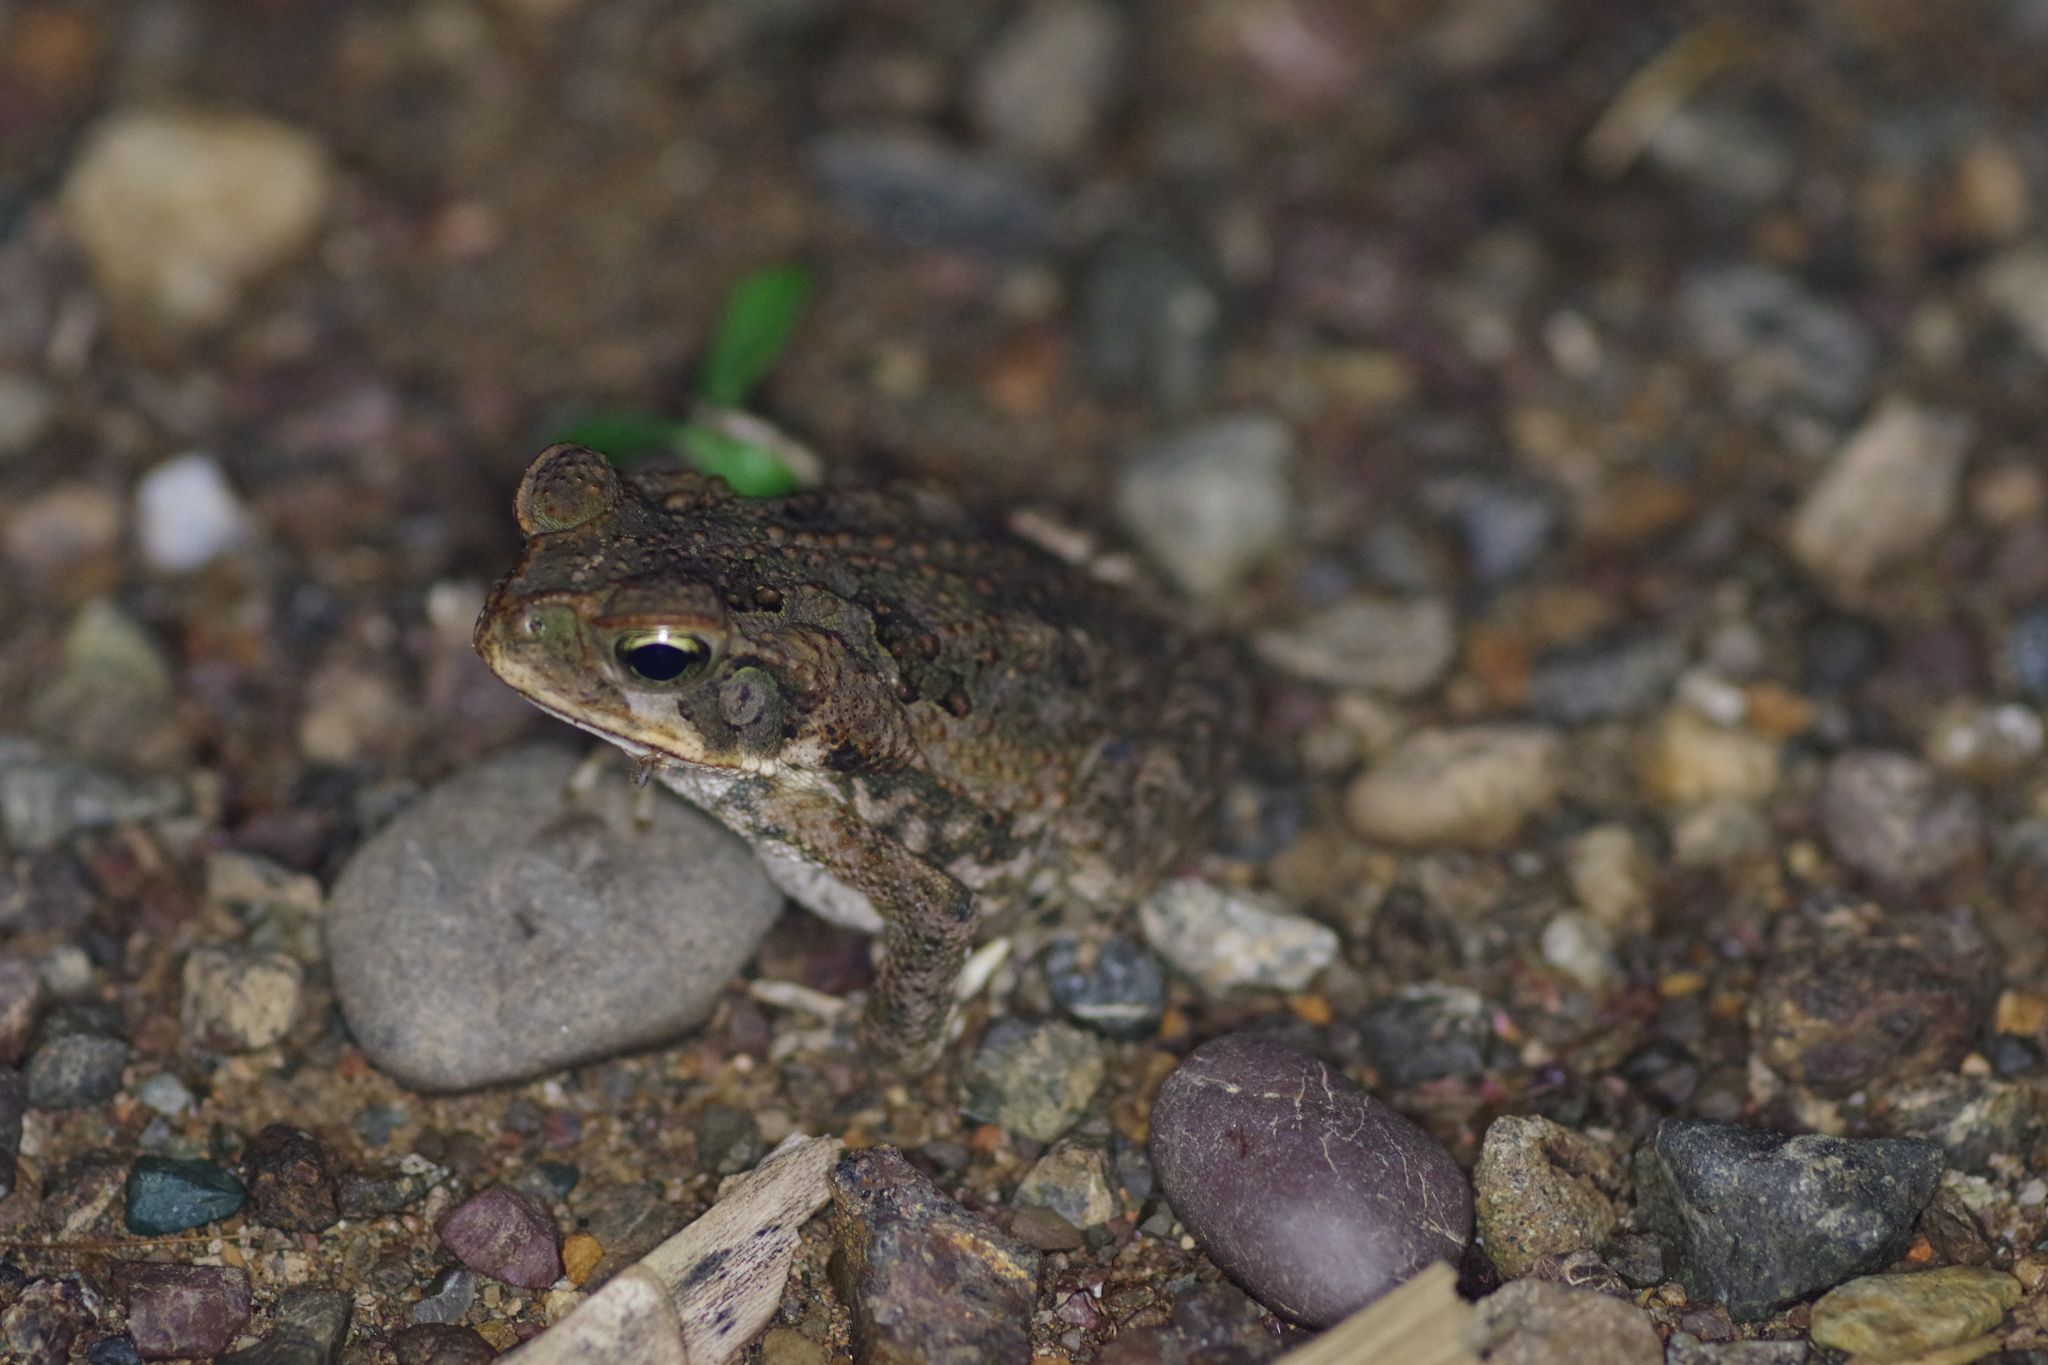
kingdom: Animalia
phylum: Chordata
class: Amphibia
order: Anura
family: Bufonidae
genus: Rhinella
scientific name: Rhinella horribilis
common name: Mesoamerican cane toad
